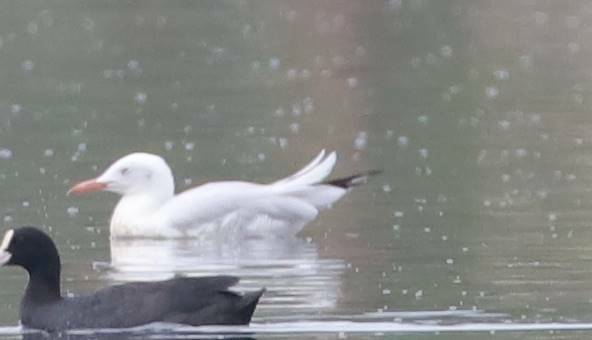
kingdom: Animalia
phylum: Chordata
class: Aves
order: Charadriiformes
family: Laridae
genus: Chroicocephalus
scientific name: Chroicocephalus genei
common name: Slender-billed gull
